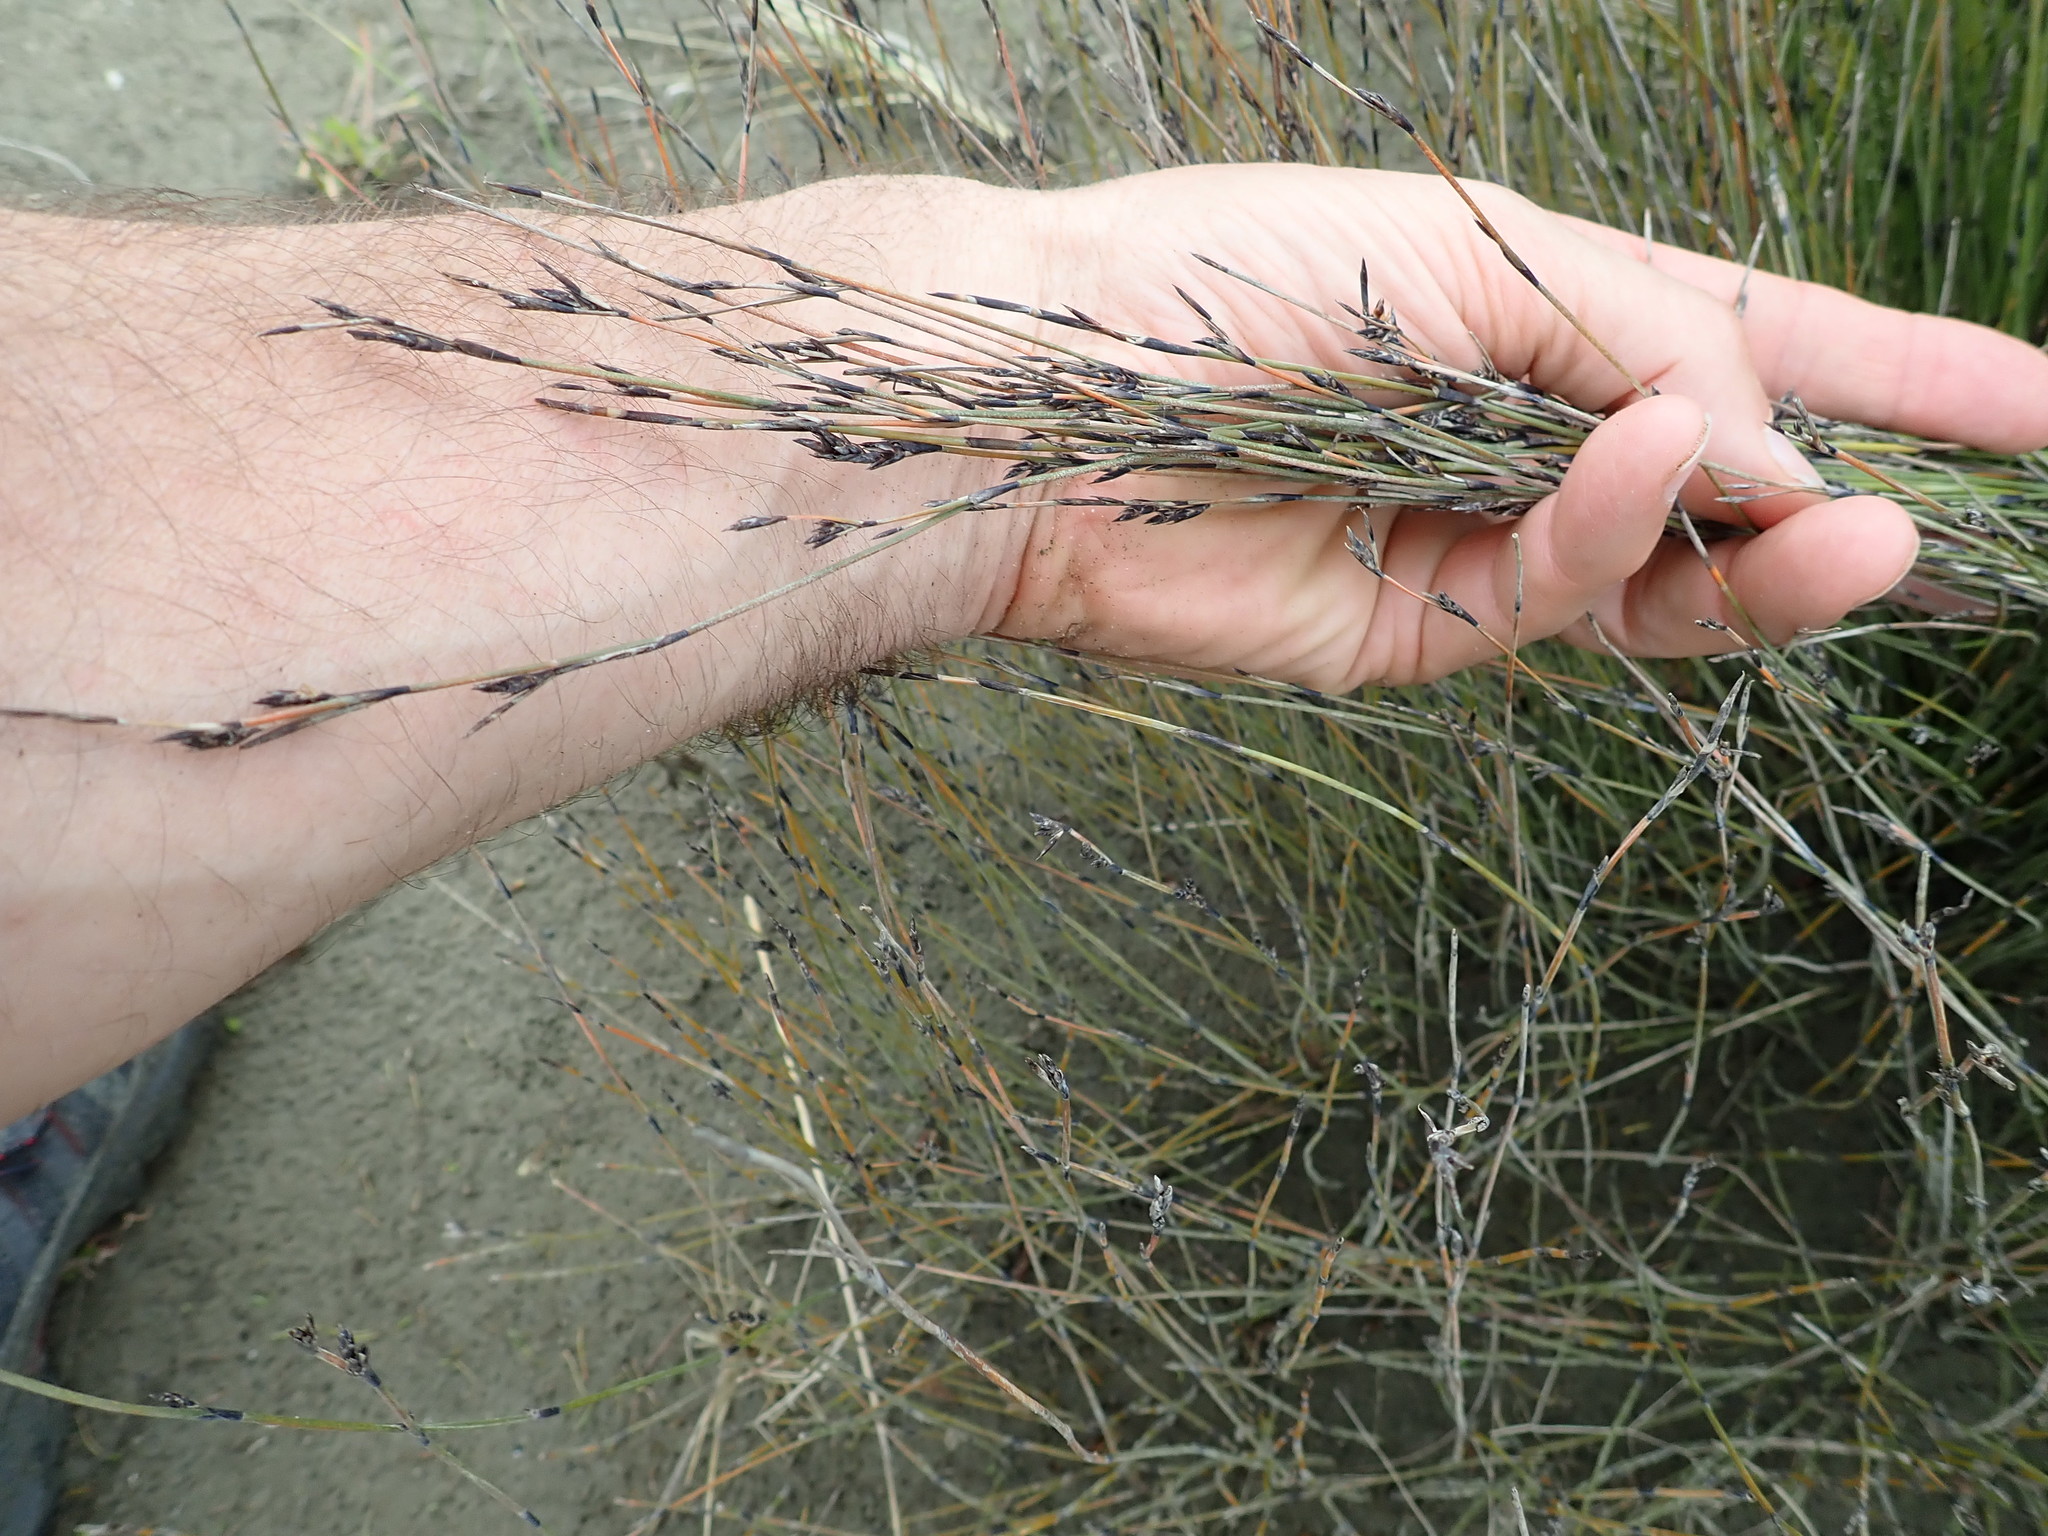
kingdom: Plantae
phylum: Tracheophyta
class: Liliopsida
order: Poales
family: Restionaceae
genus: Apodasmia
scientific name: Apodasmia similis
